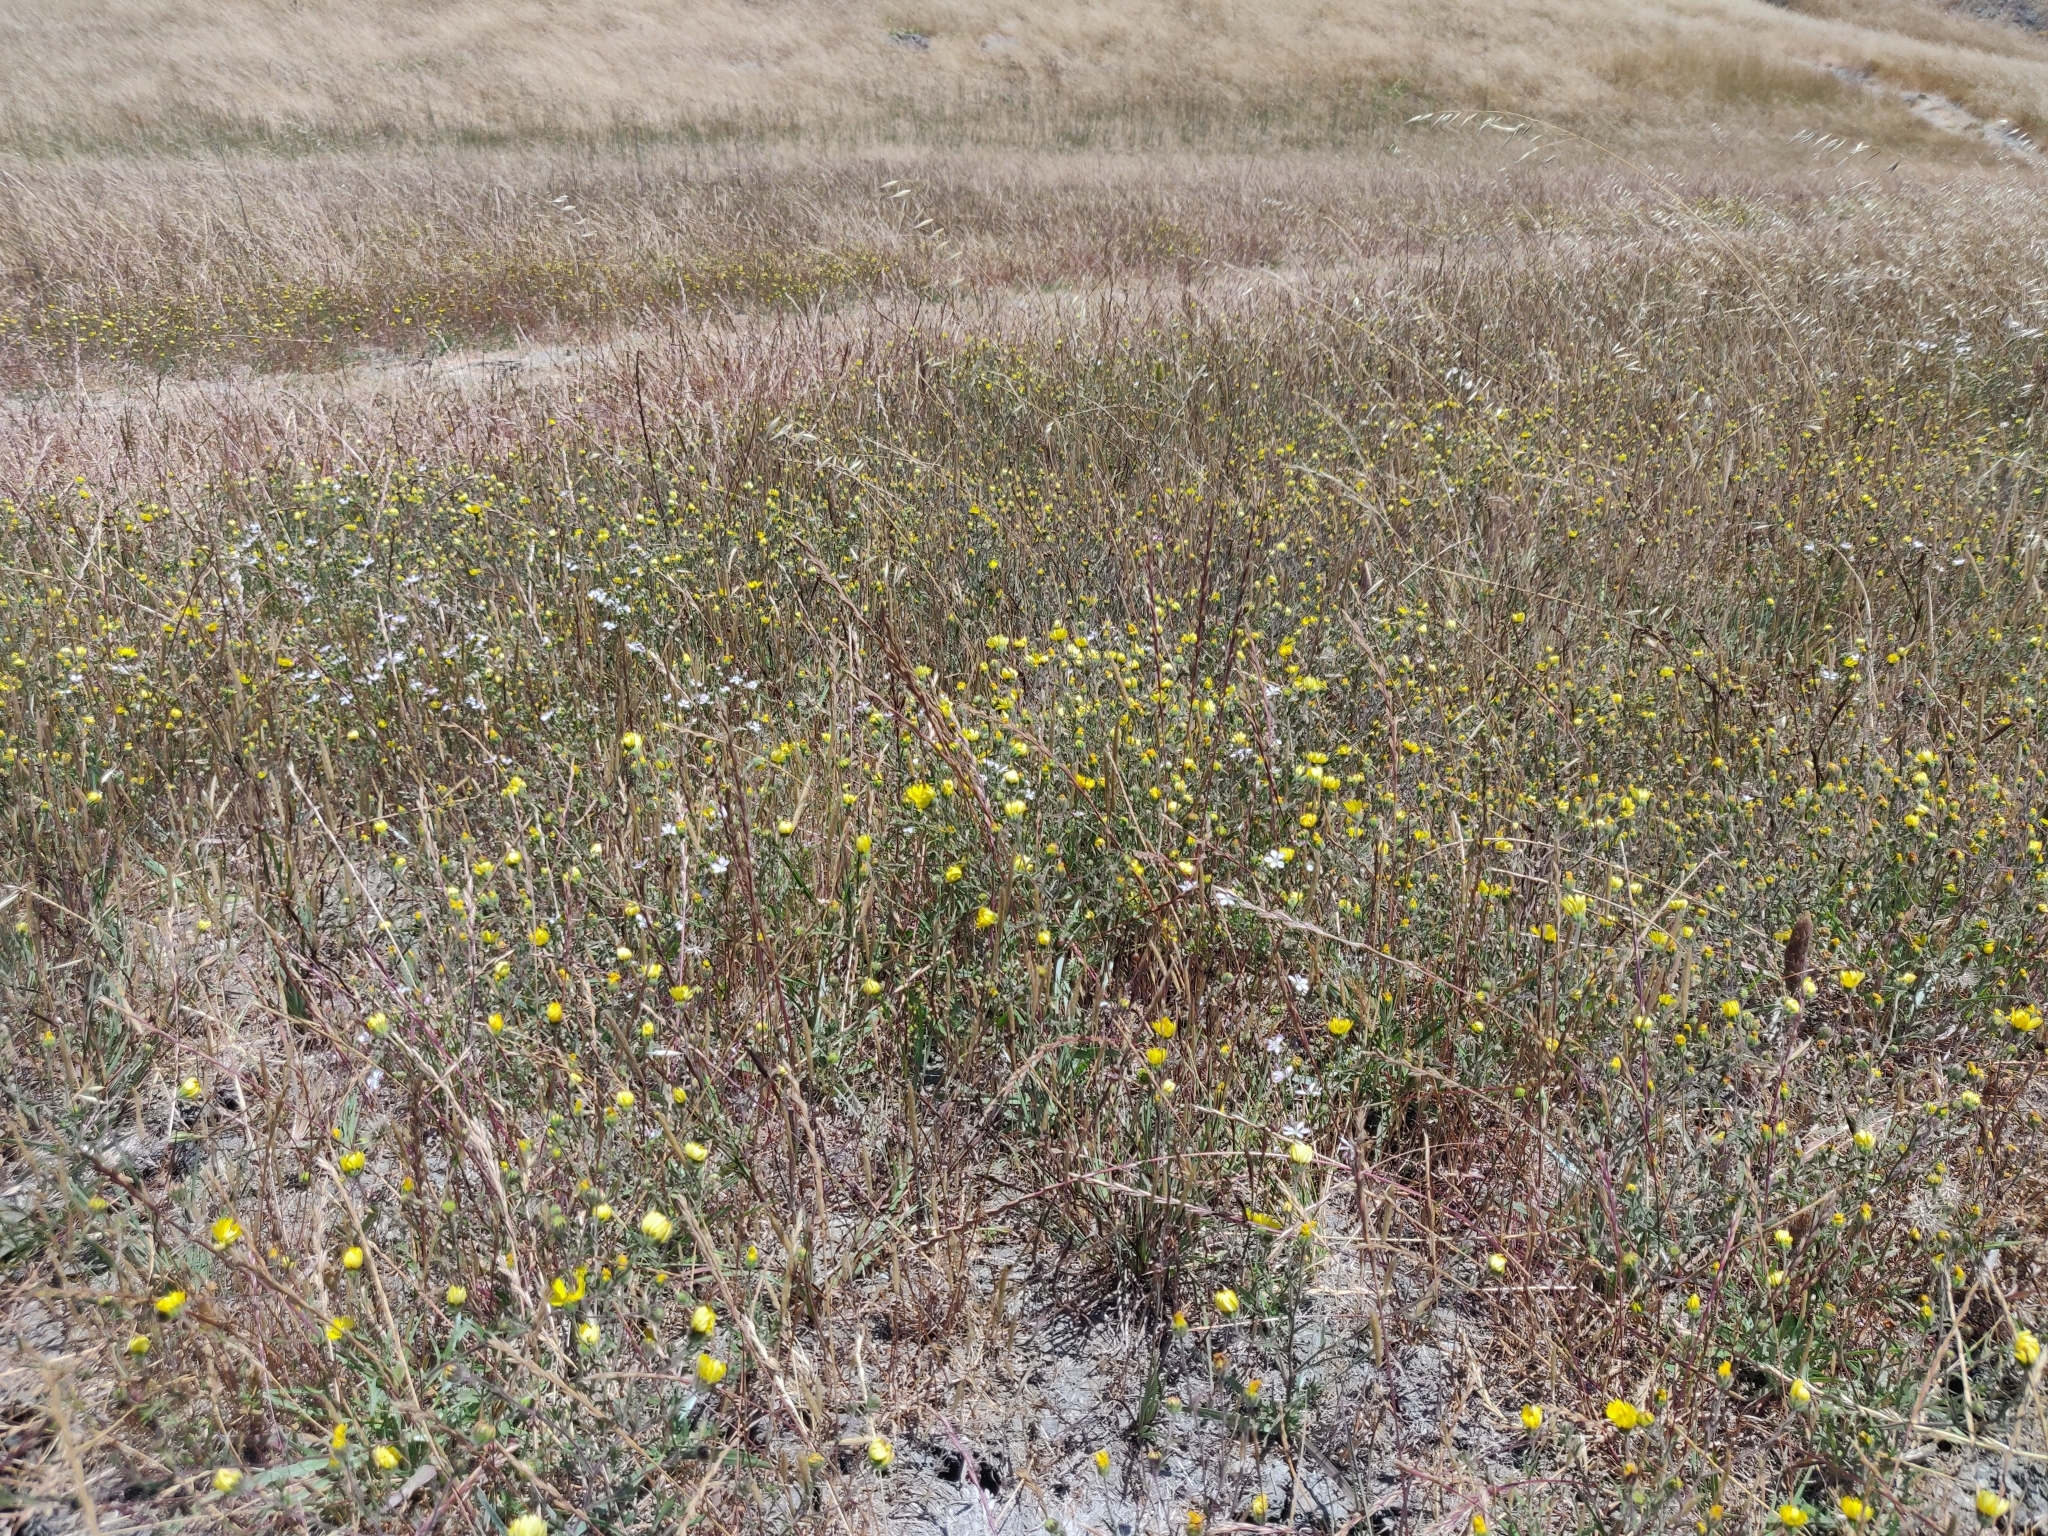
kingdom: Plantae
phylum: Tracheophyta
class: Magnoliopsida
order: Malpighiales
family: Linaceae
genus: Hesperolinon
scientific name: Hesperolinon congestum
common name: Marin dwarf-flax
